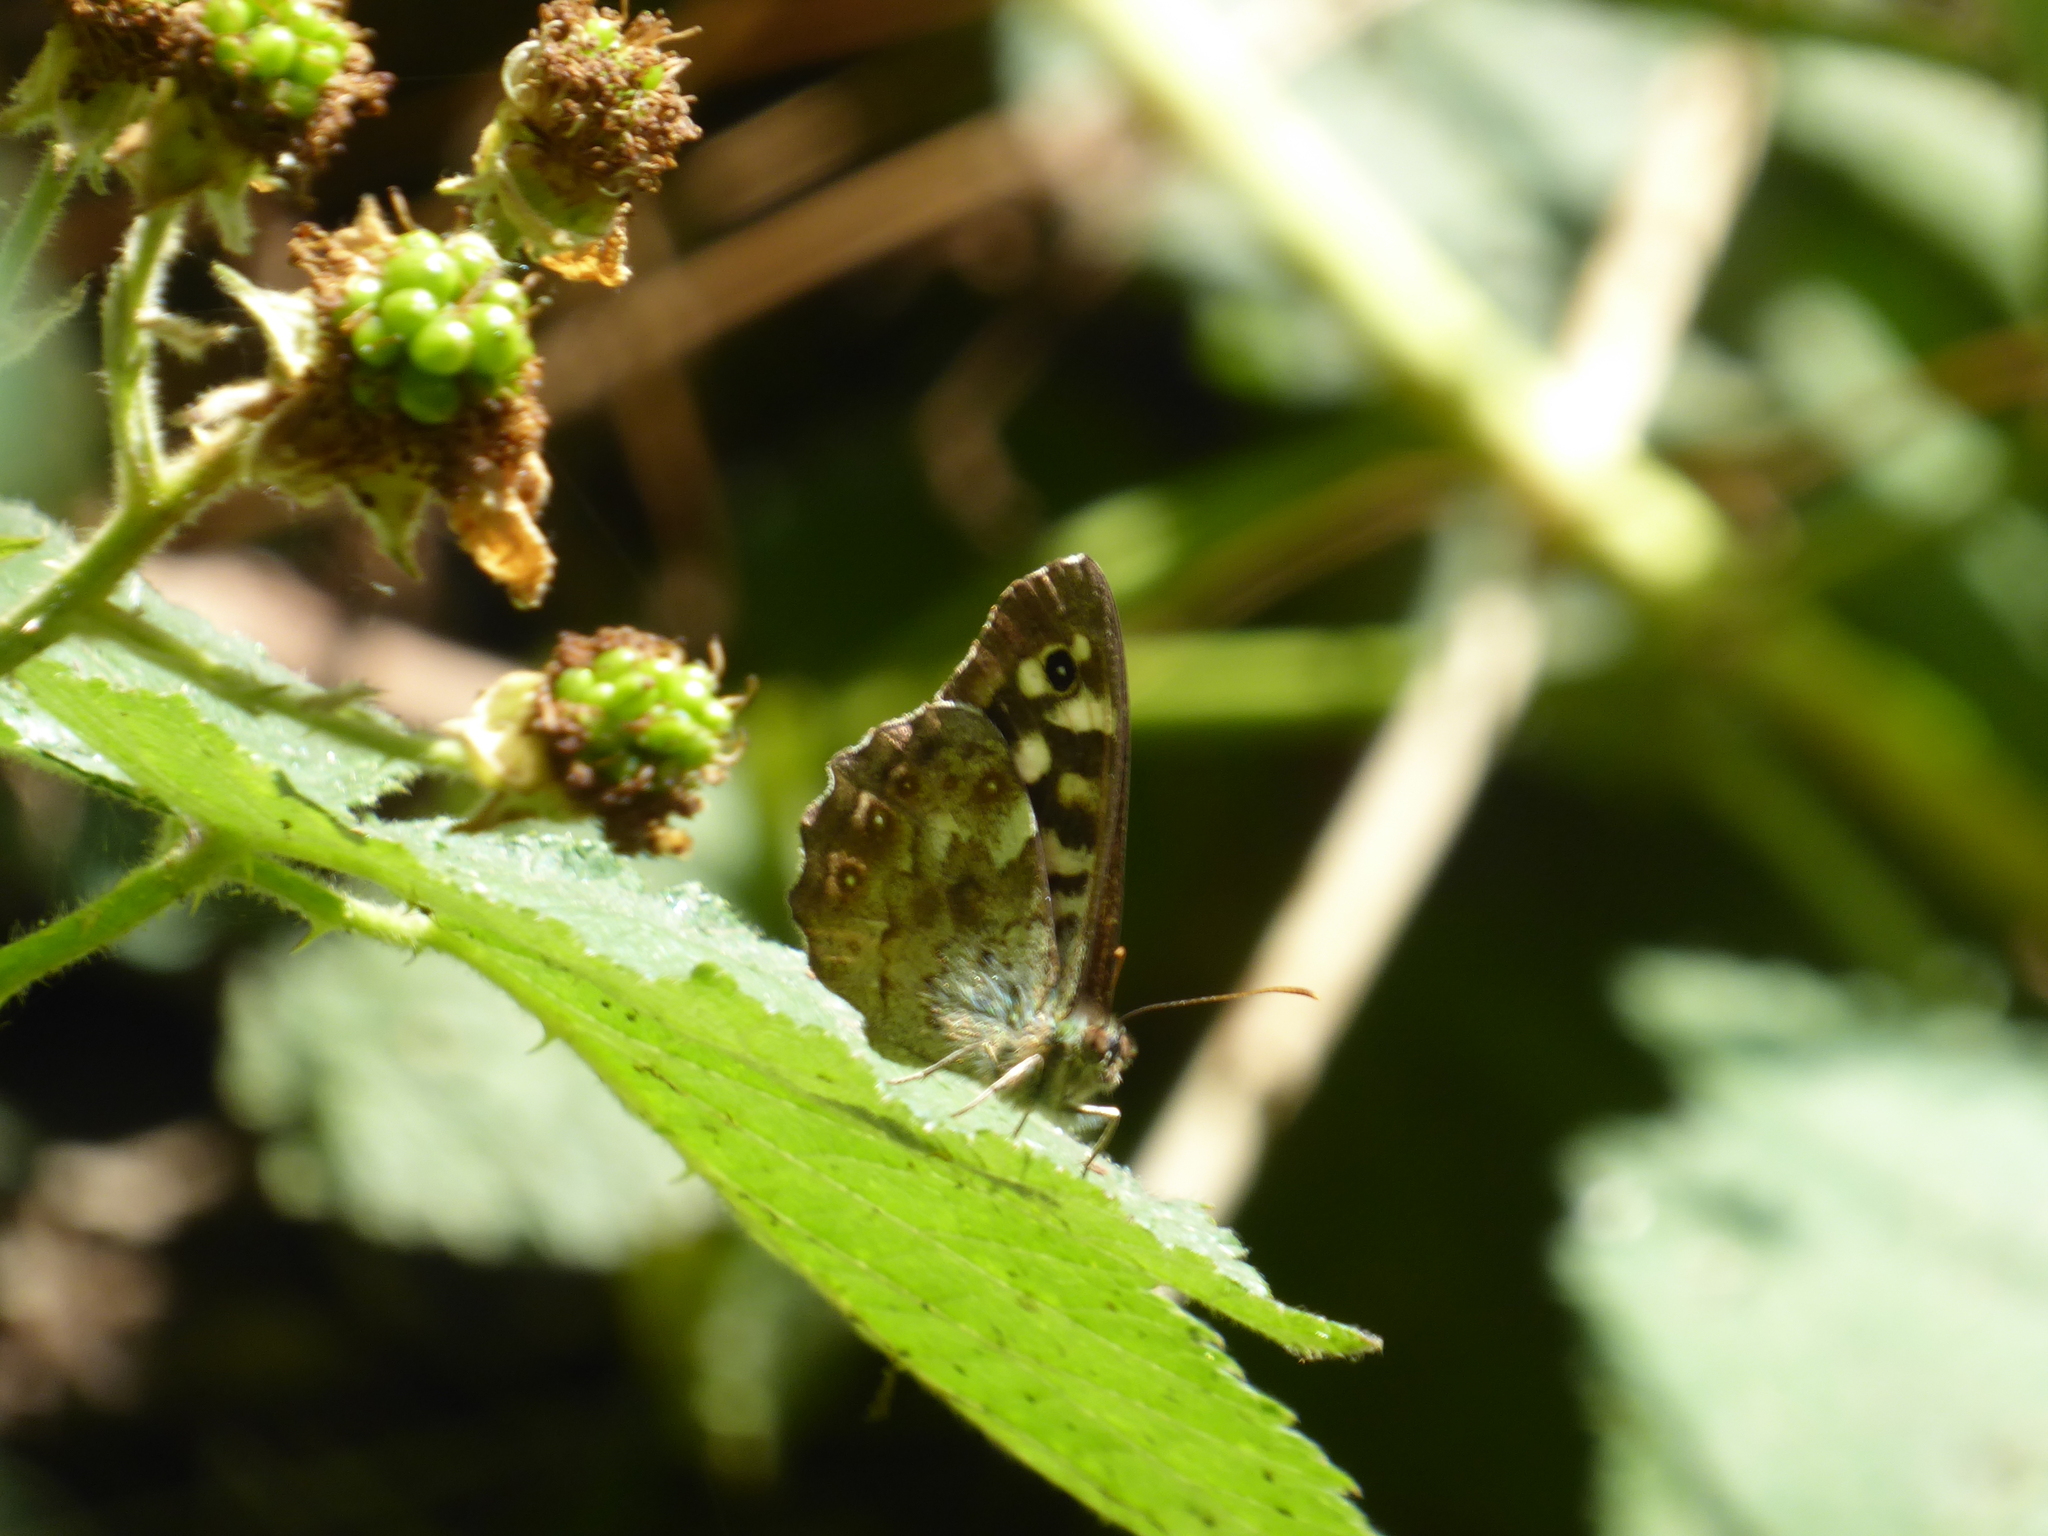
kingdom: Animalia
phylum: Arthropoda
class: Insecta
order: Lepidoptera
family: Nymphalidae
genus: Pararge
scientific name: Pararge aegeria
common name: Speckled wood
